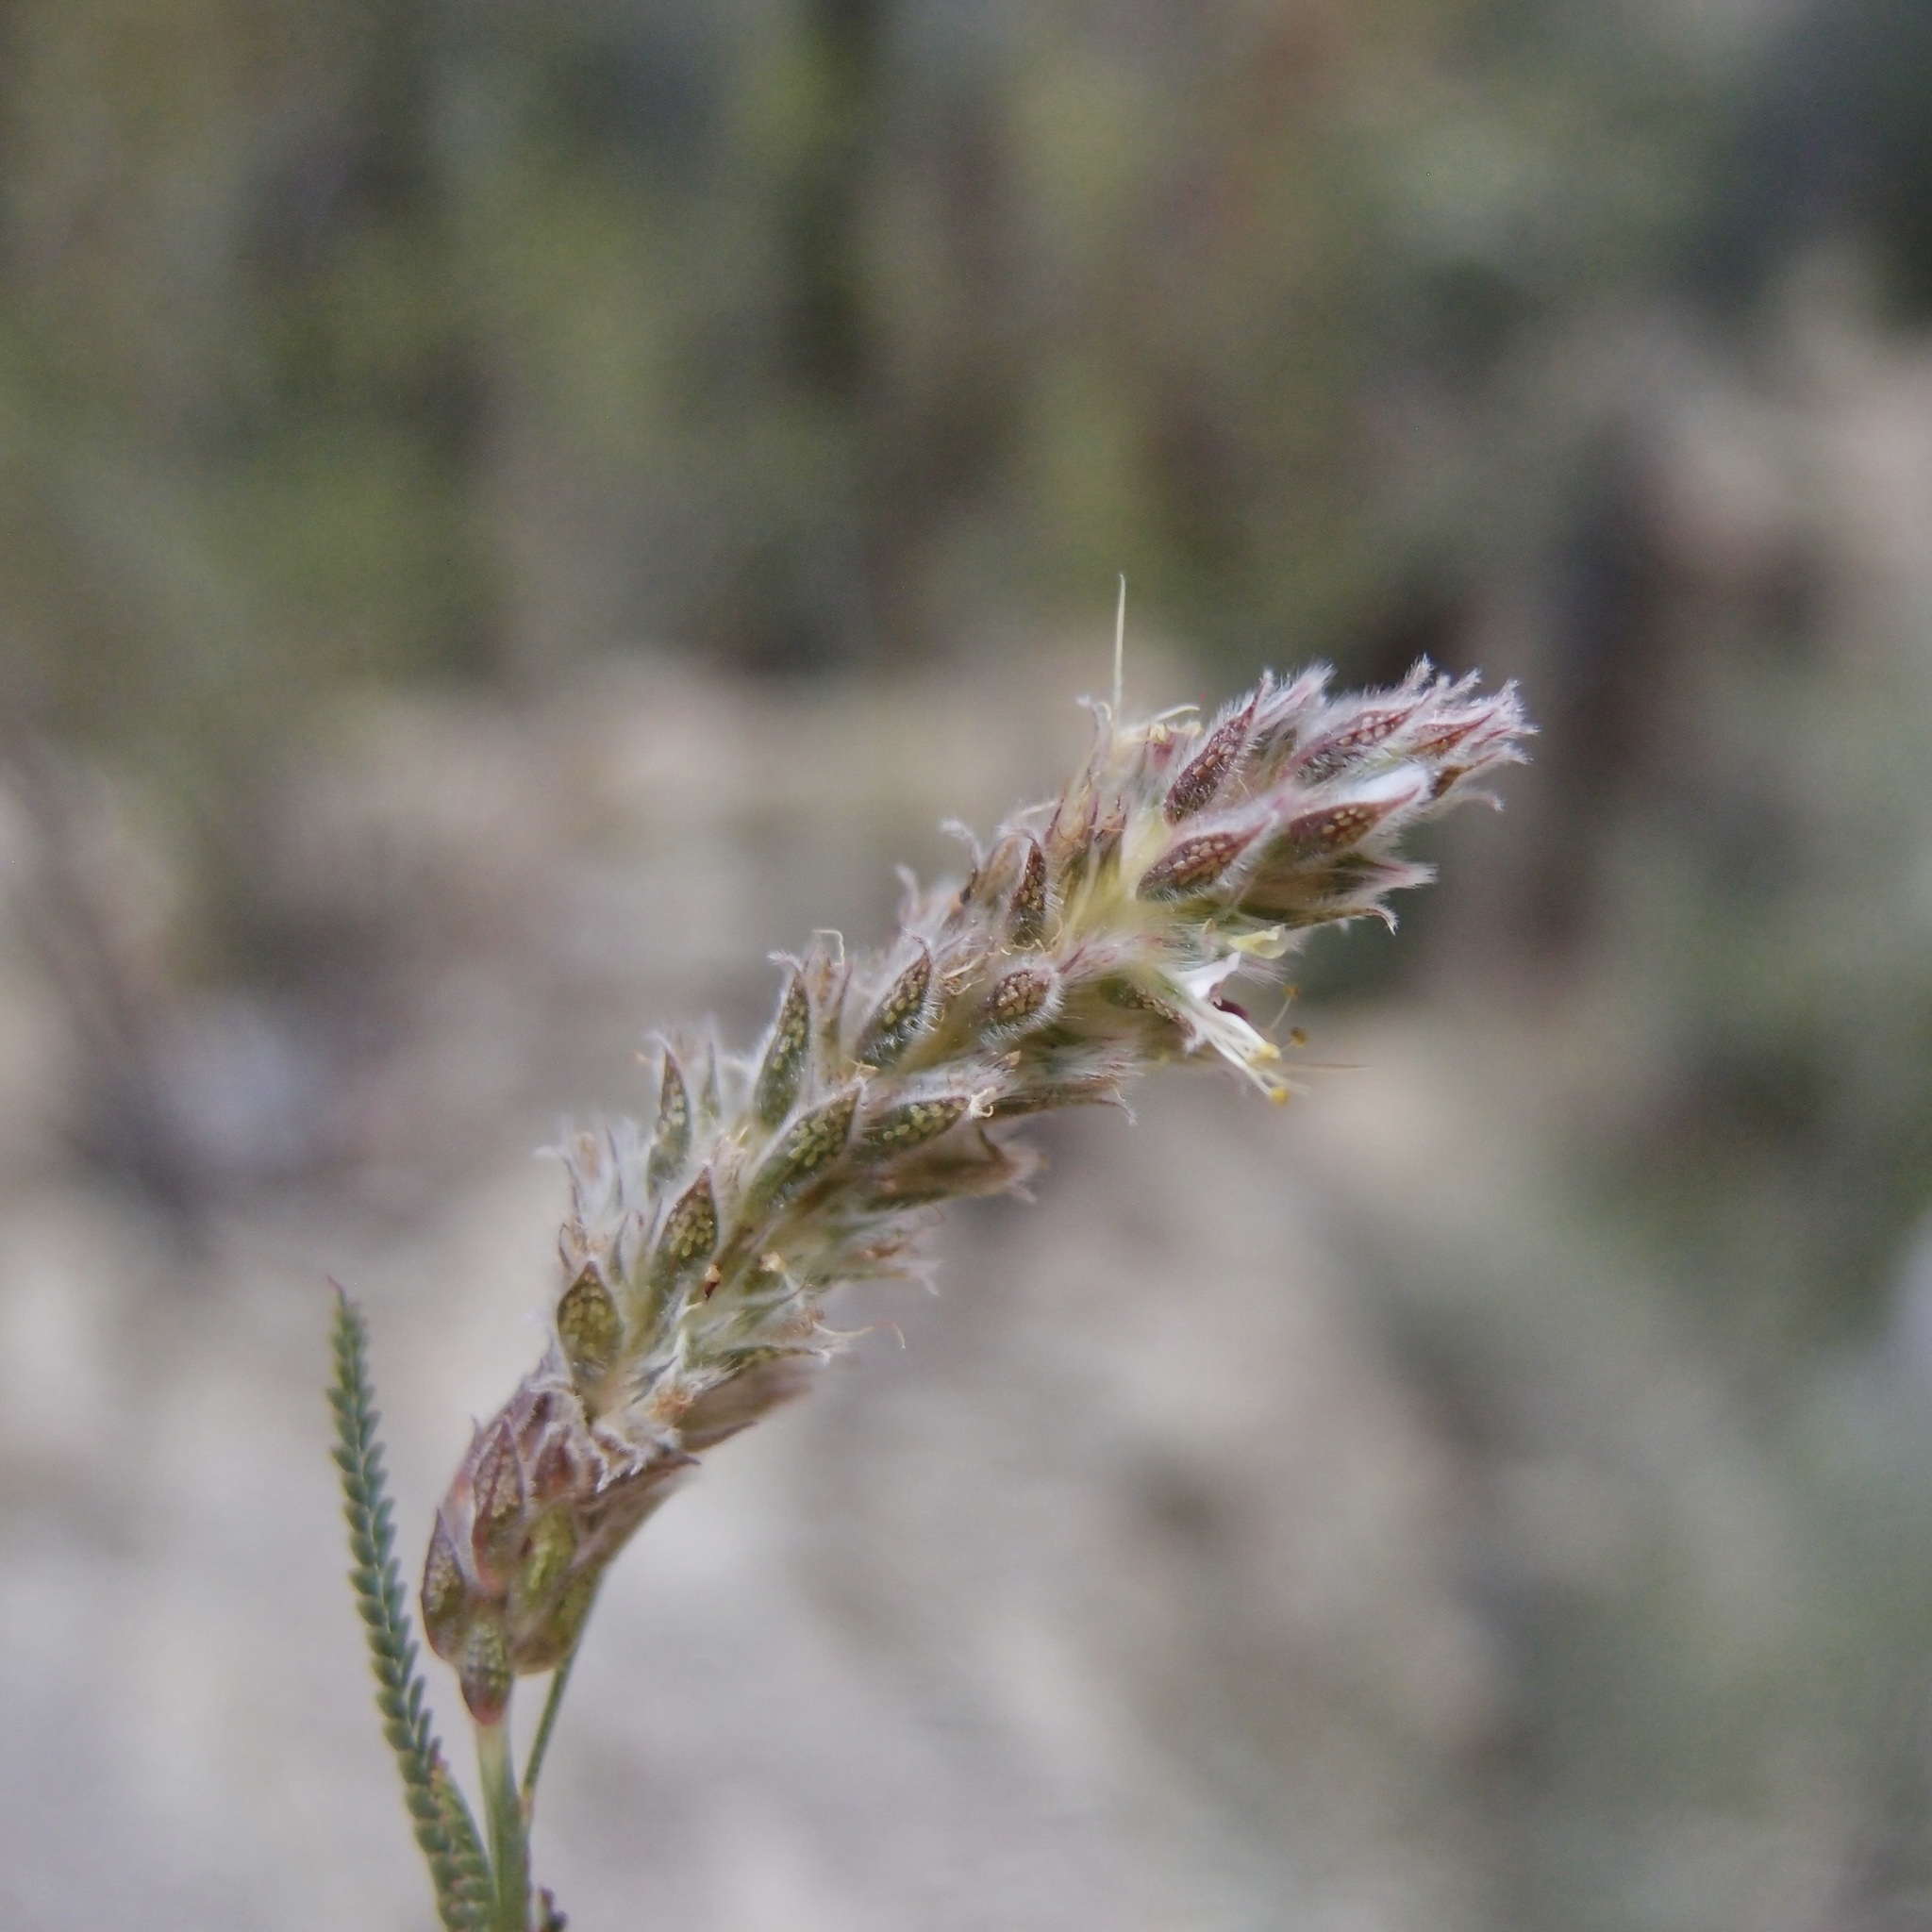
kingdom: Plantae
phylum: Tracheophyta
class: Magnoliopsida
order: Fabales
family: Fabaceae
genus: Dalea
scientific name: Dalea pringlei
